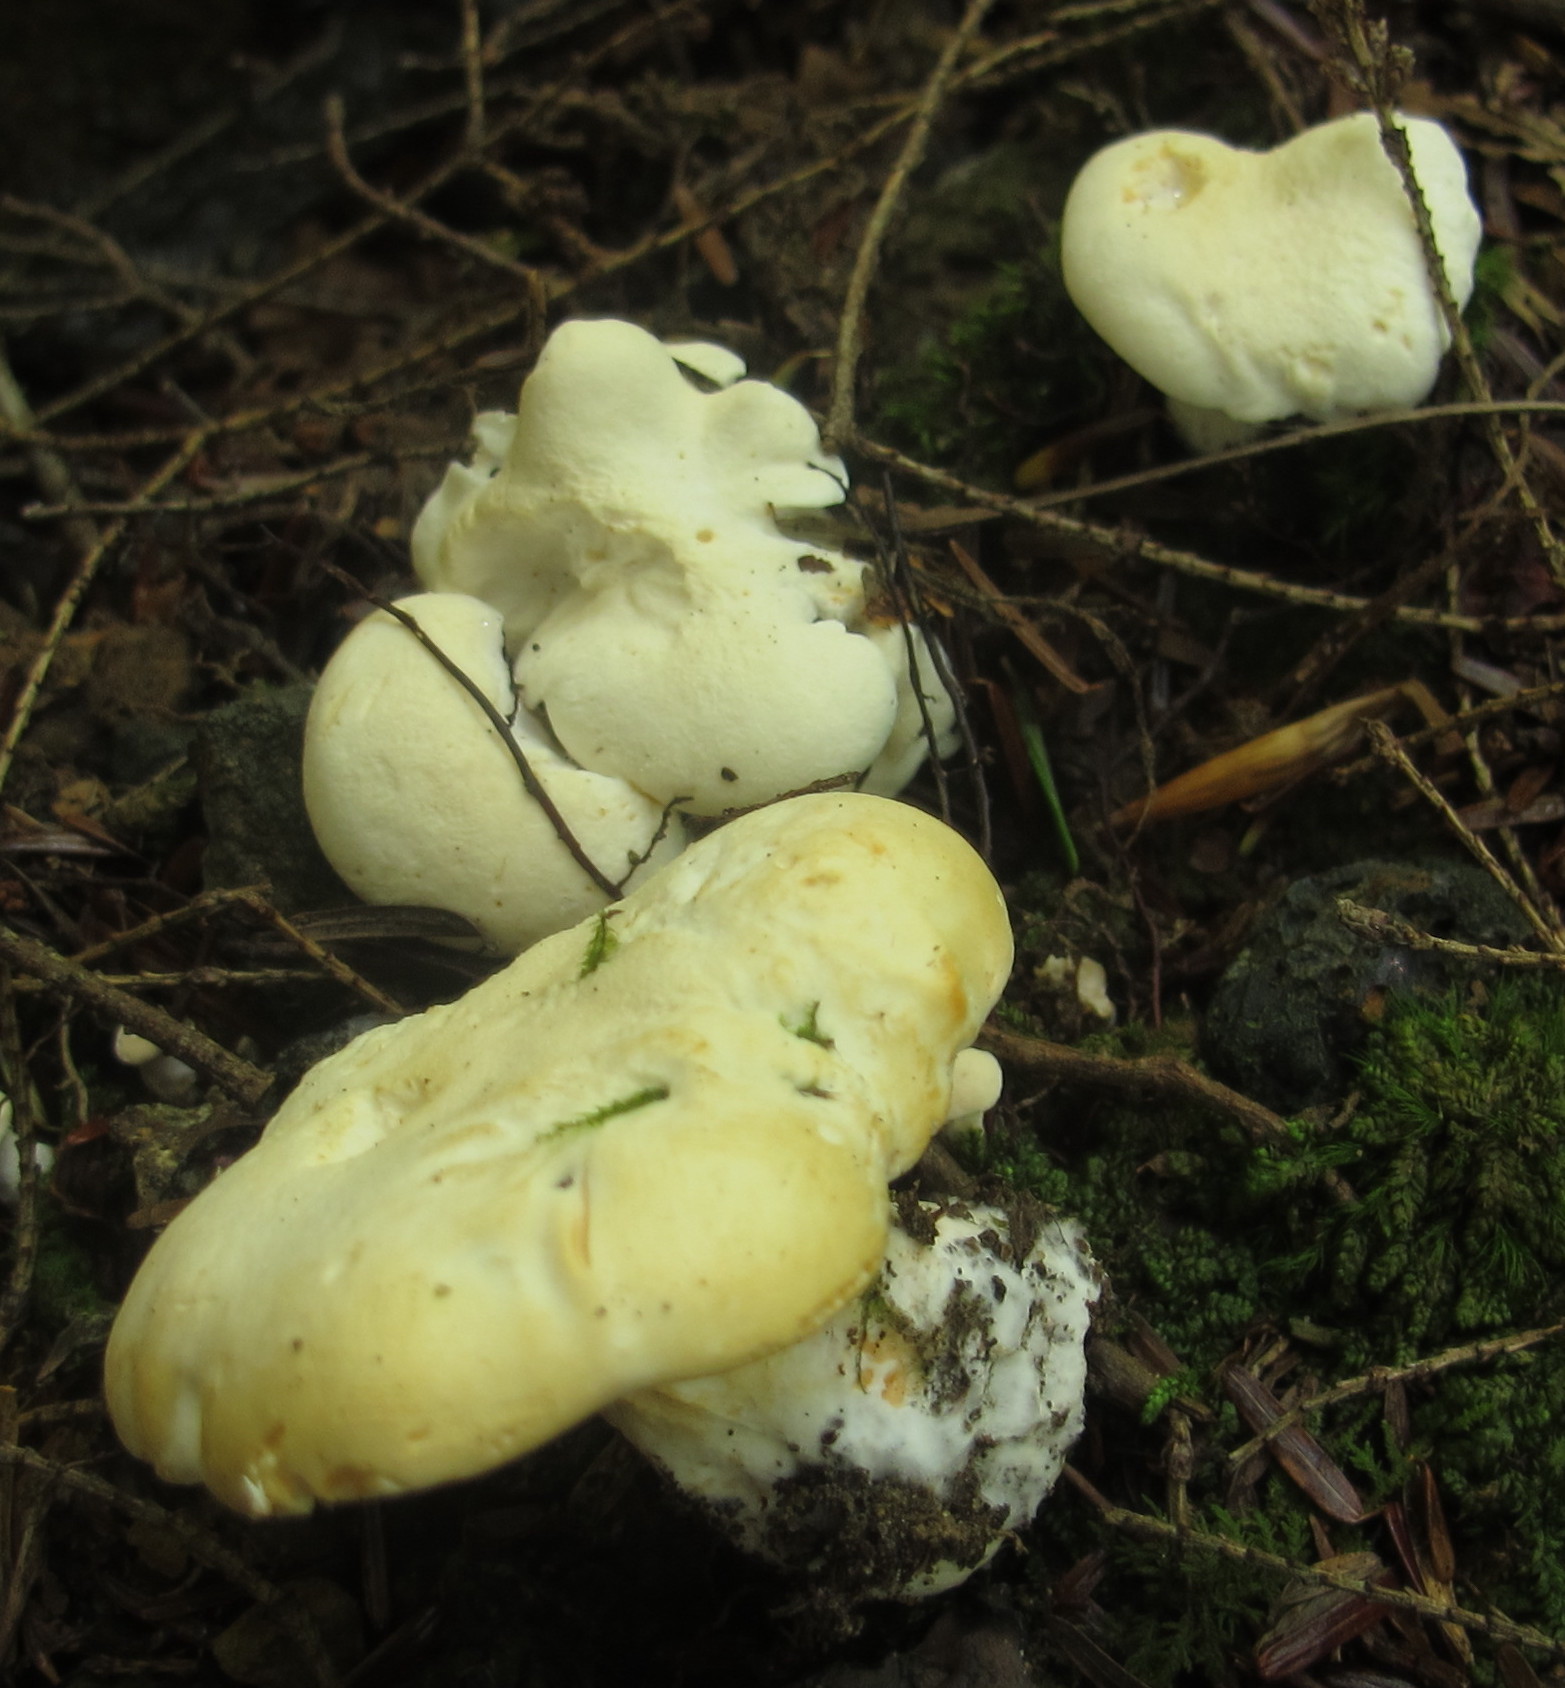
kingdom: Fungi
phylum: Basidiomycota
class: Agaricomycetes
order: Cantharellales
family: Hydnaceae
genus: Hydnum
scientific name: Hydnum albidum
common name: White hedgehog
